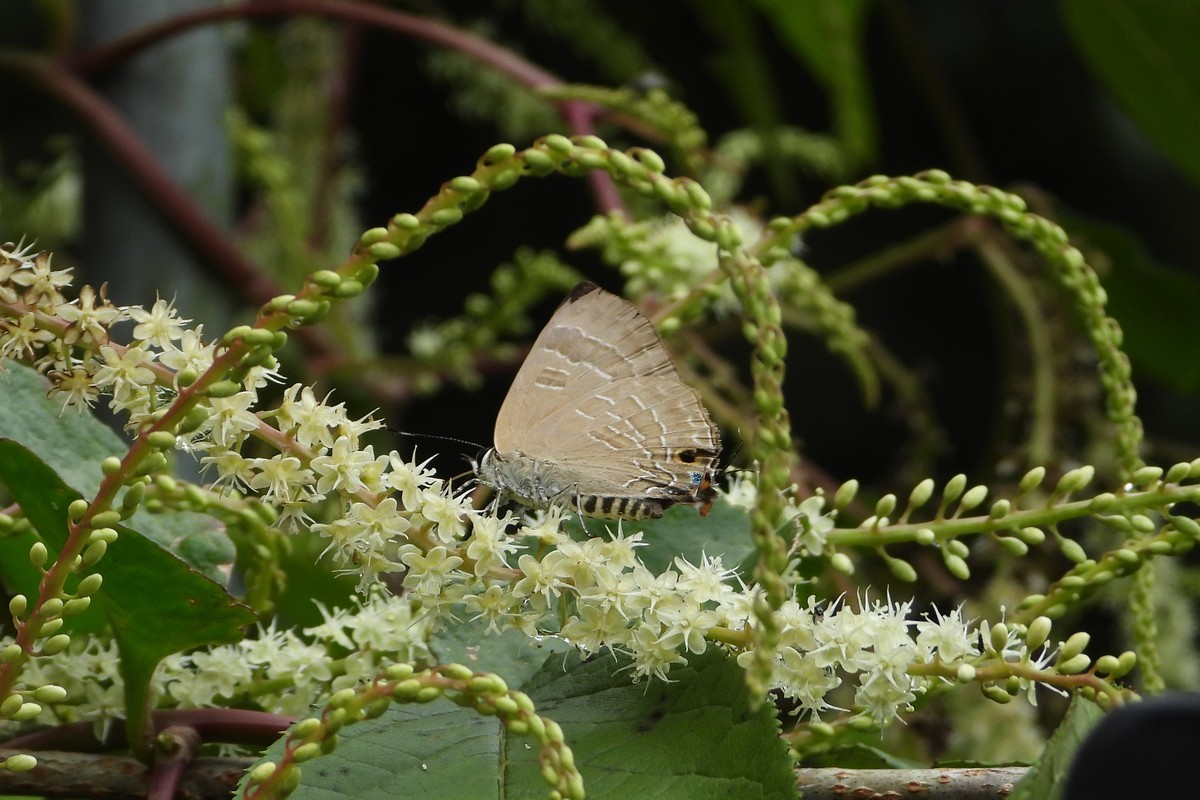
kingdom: Animalia
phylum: Arthropoda
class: Insecta
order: Lepidoptera
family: Lycaenidae
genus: Deudorix
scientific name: Deudorix epijarbas
